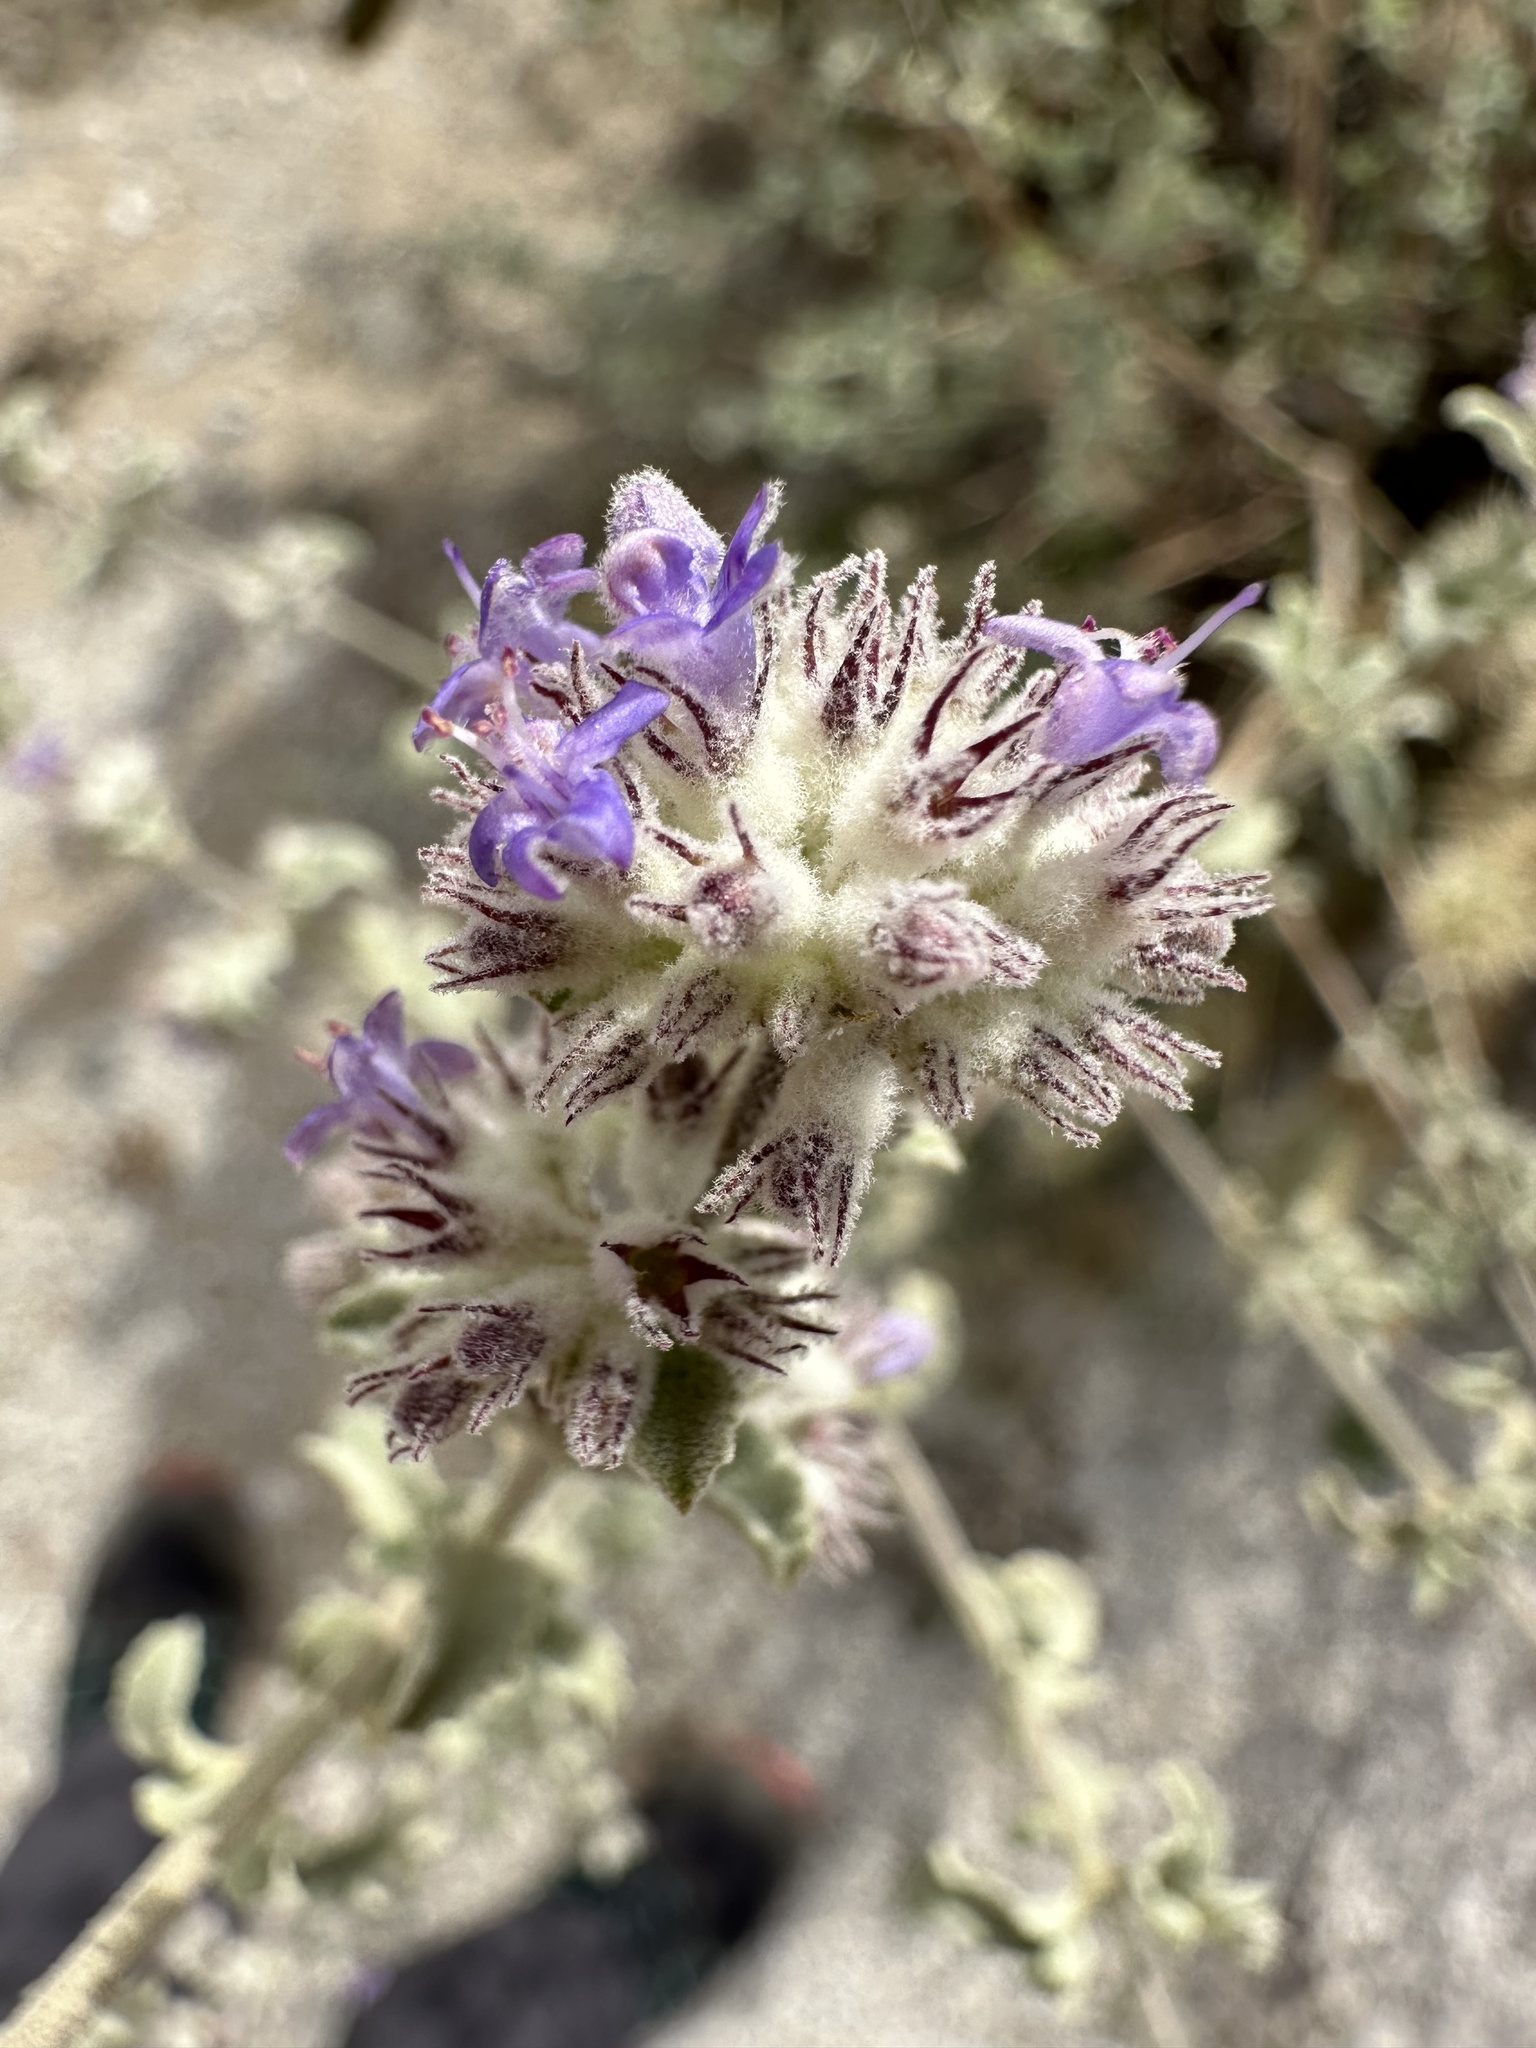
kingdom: Plantae
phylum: Tracheophyta
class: Magnoliopsida
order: Lamiales
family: Lamiaceae
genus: Condea
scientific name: Condea emoryi
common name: Chia
